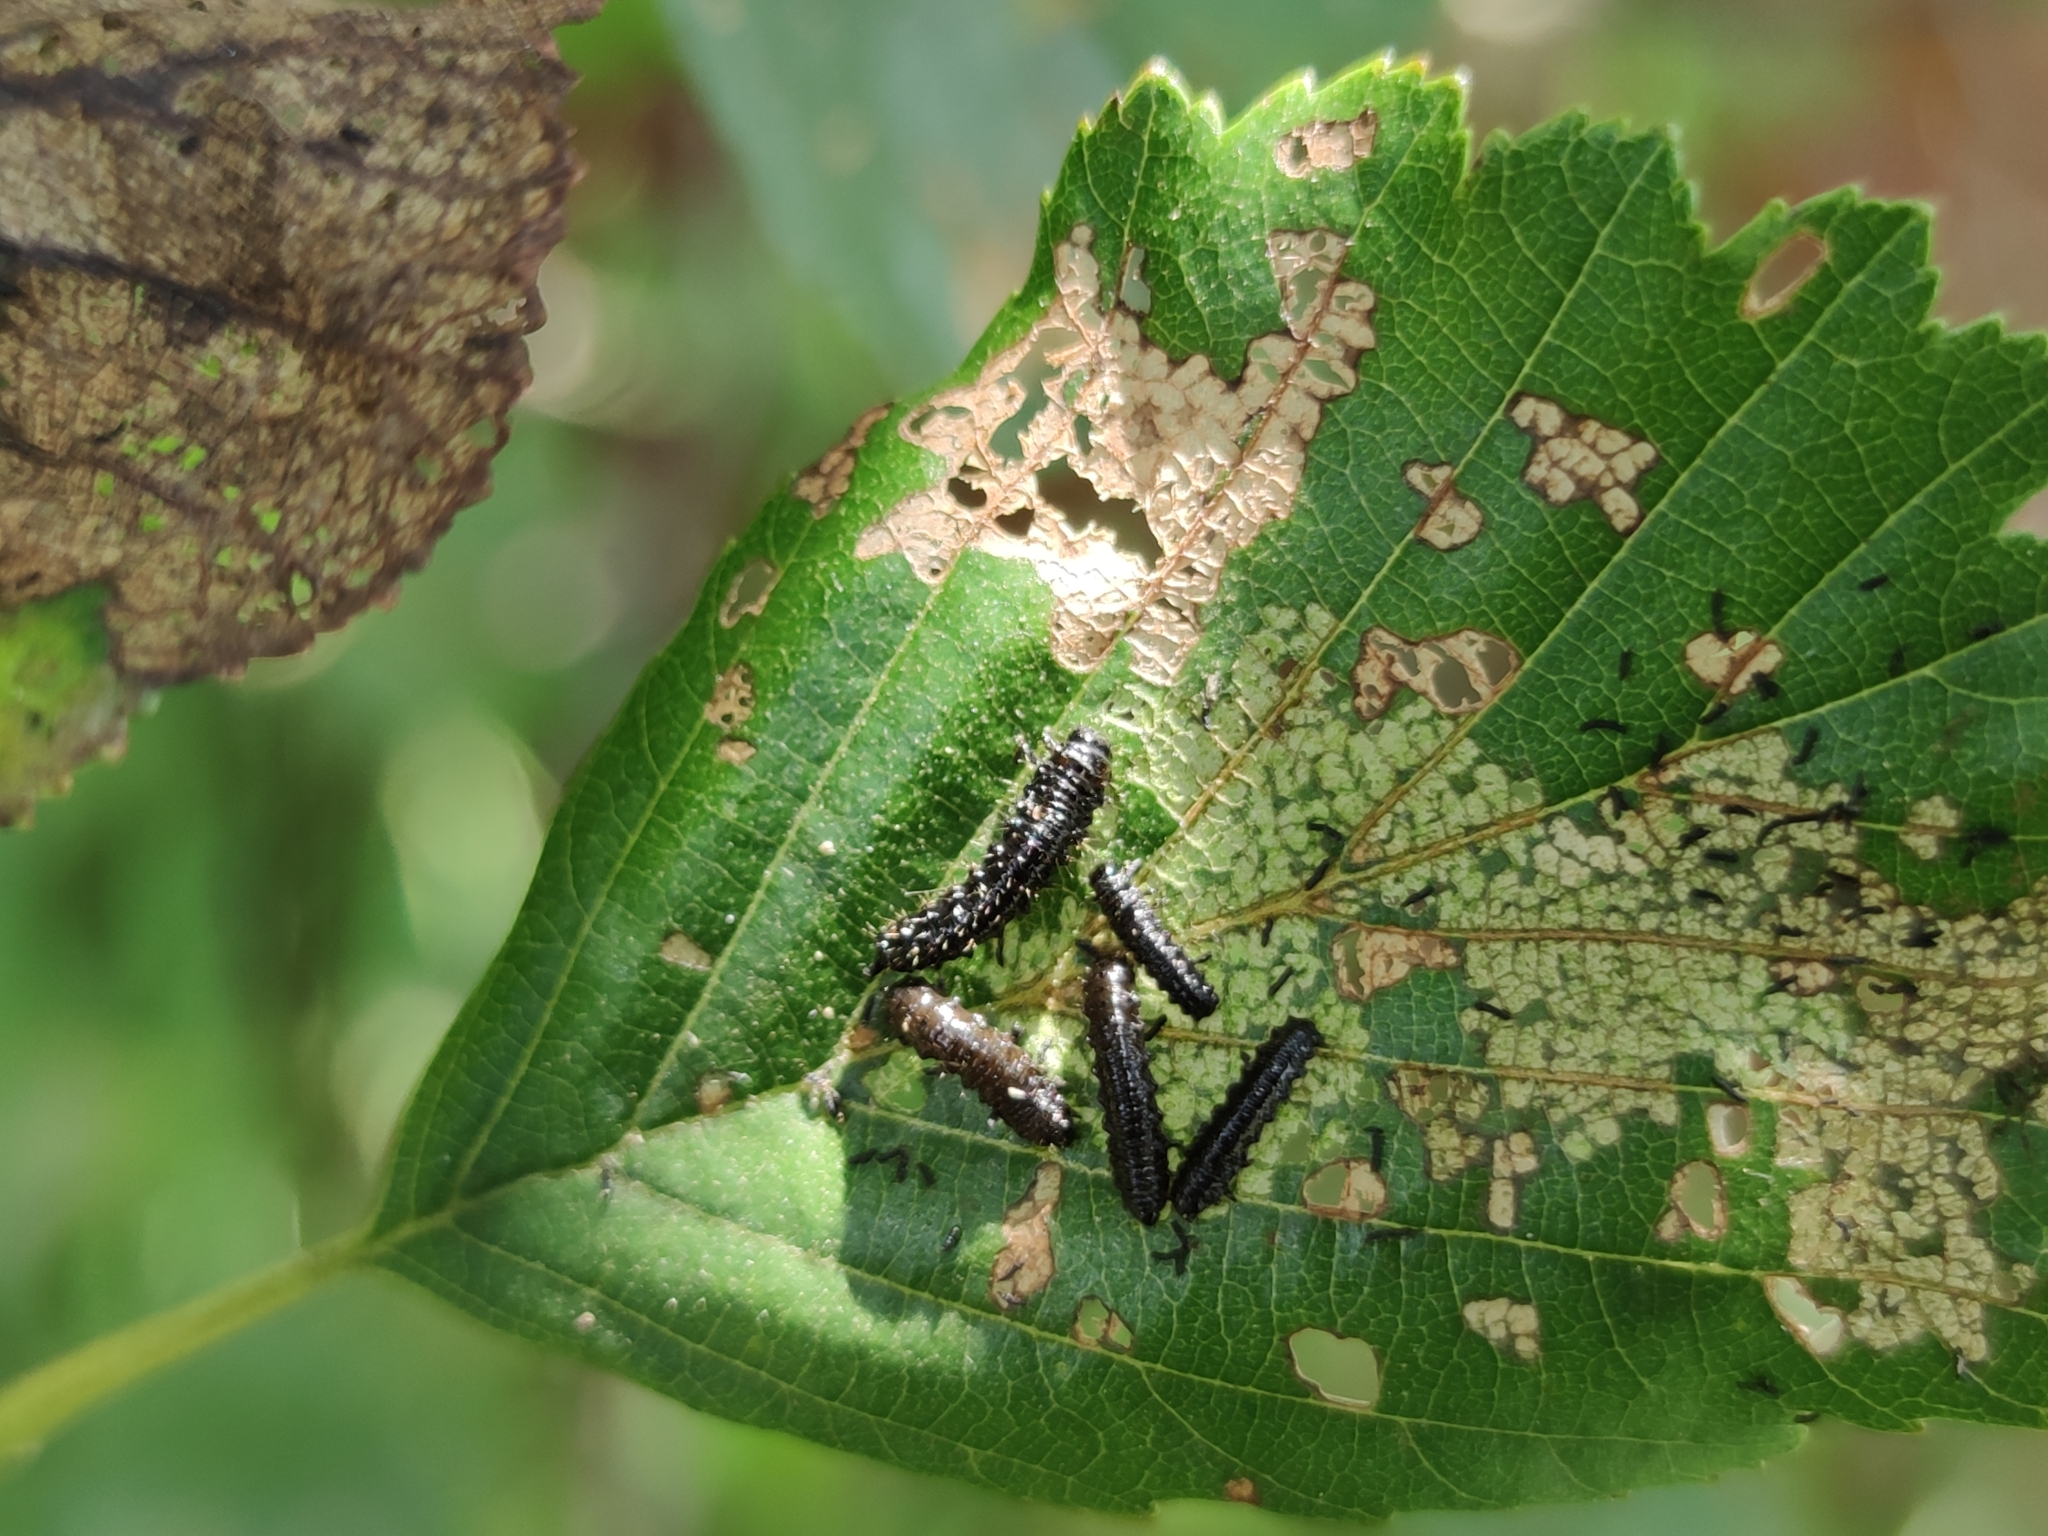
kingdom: Animalia
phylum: Arthropoda
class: Insecta
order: Coleoptera
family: Chrysomelidae
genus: Agelastica
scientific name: Agelastica alni
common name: Alder leaf beetle
